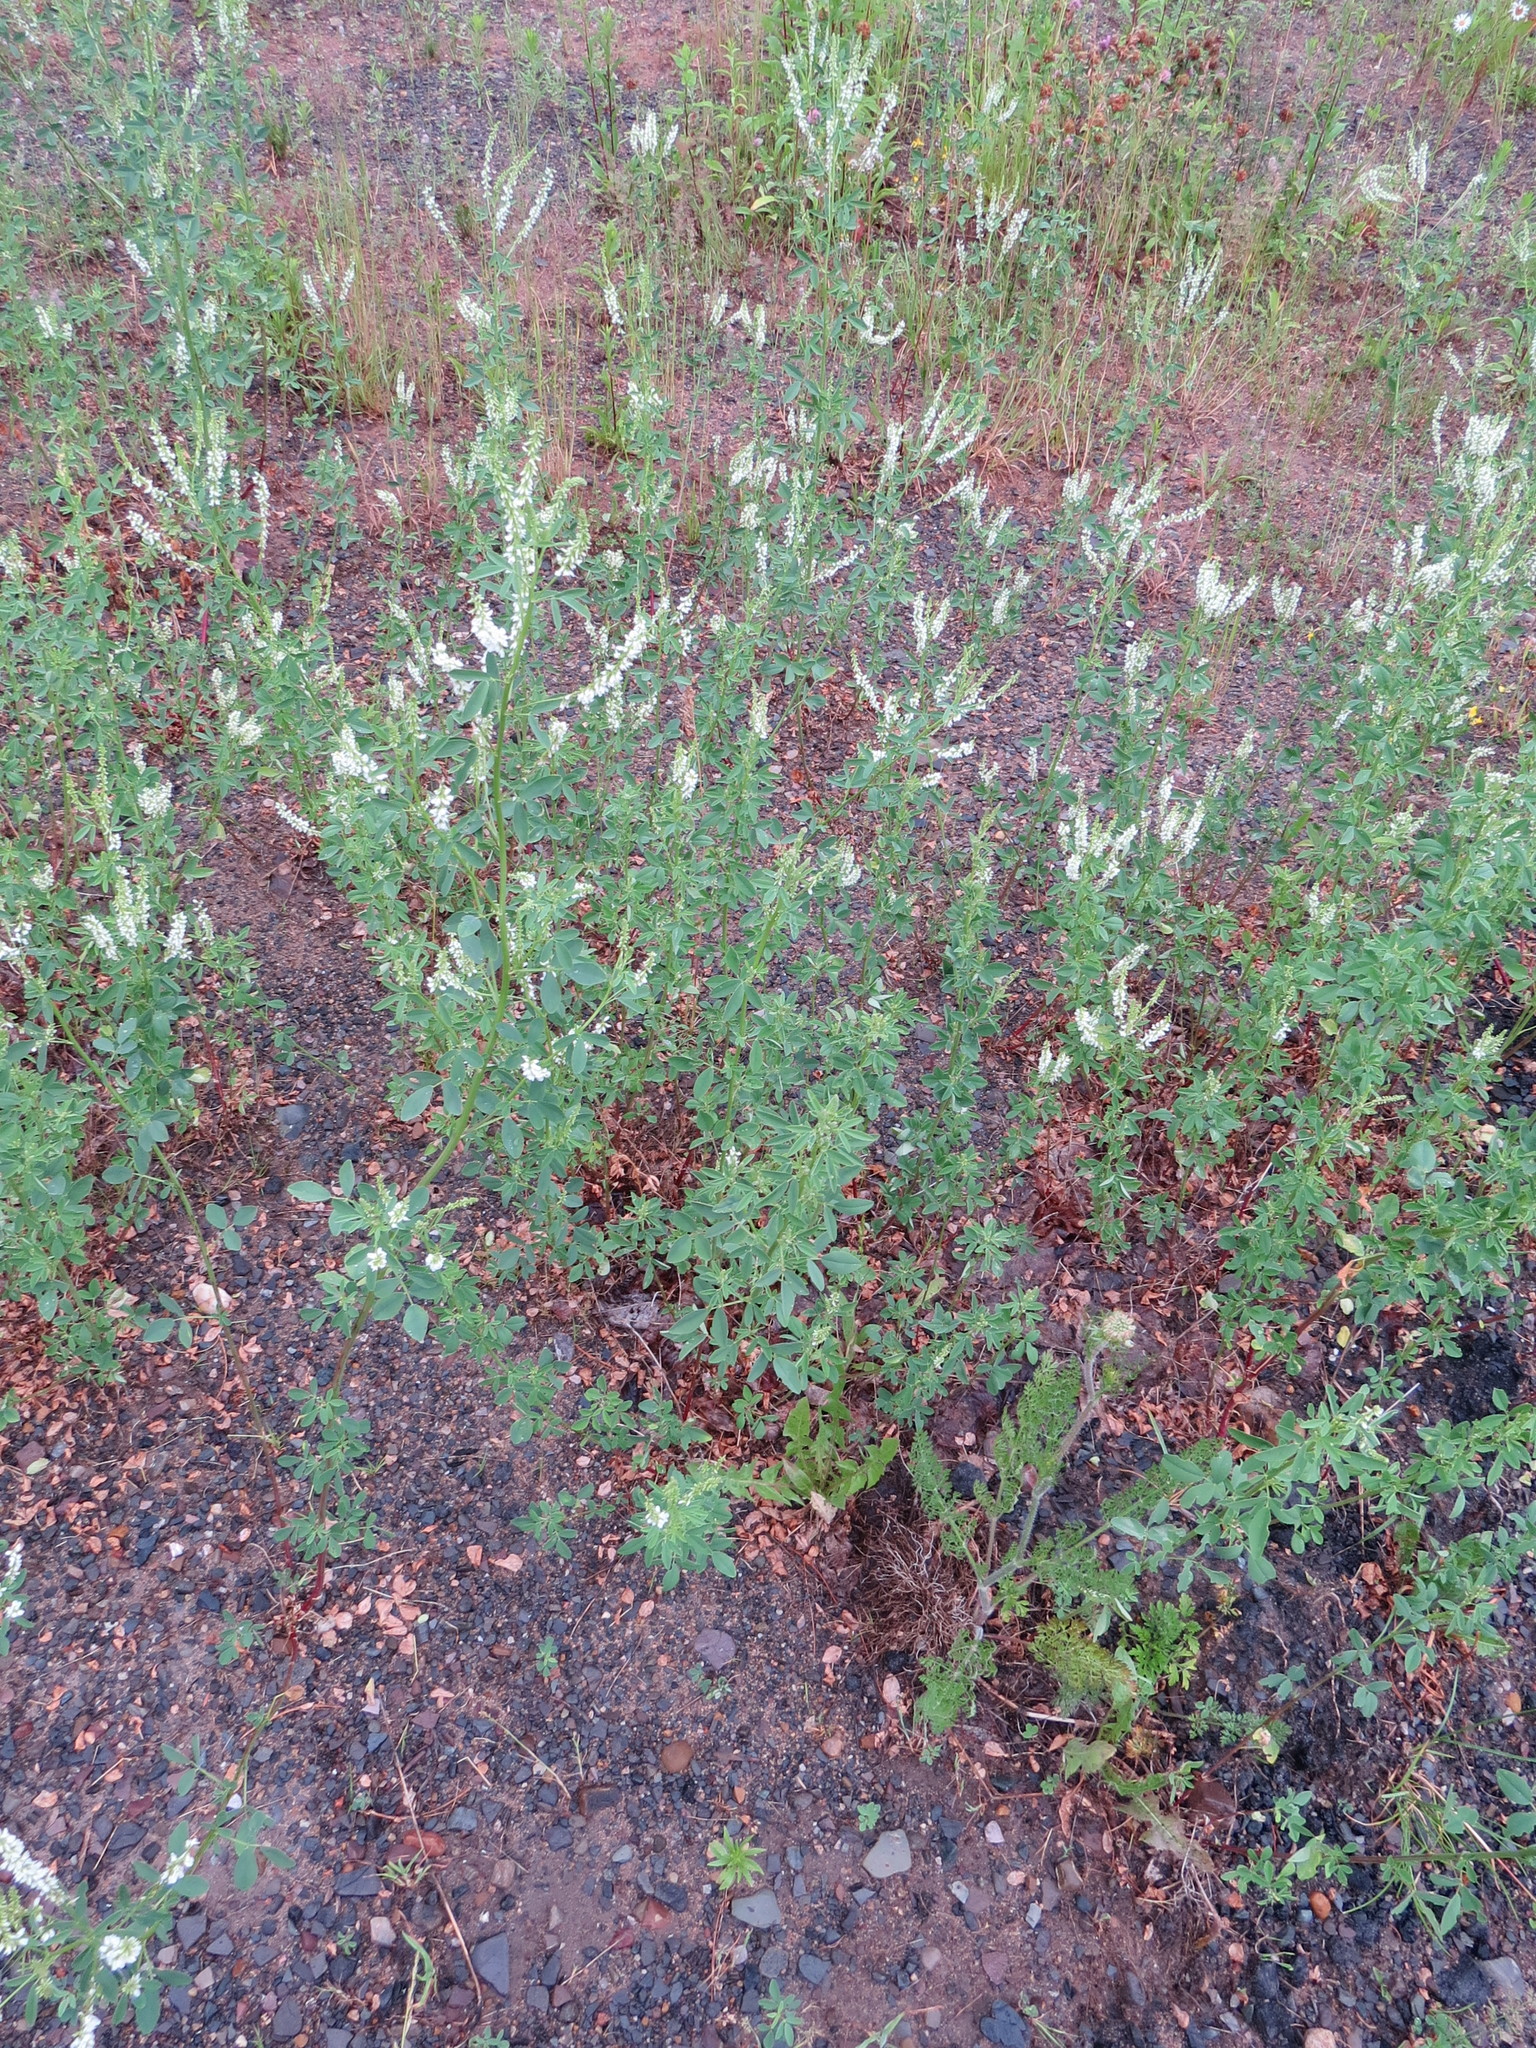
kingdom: Plantae
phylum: Tracheophyta
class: Magnoliopsida
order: Fabales
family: Fabaceae
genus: Melilotus
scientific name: Melilotus albus
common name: White melilot
